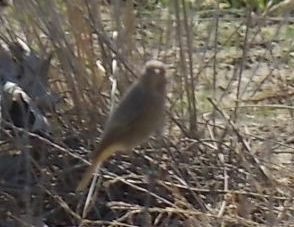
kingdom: Animalia
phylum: Chordata
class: Aves
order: Passeriformes
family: Muscicapidae
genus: Phoenicurus
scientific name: Phoenicurus ochruros
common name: Black redstart
